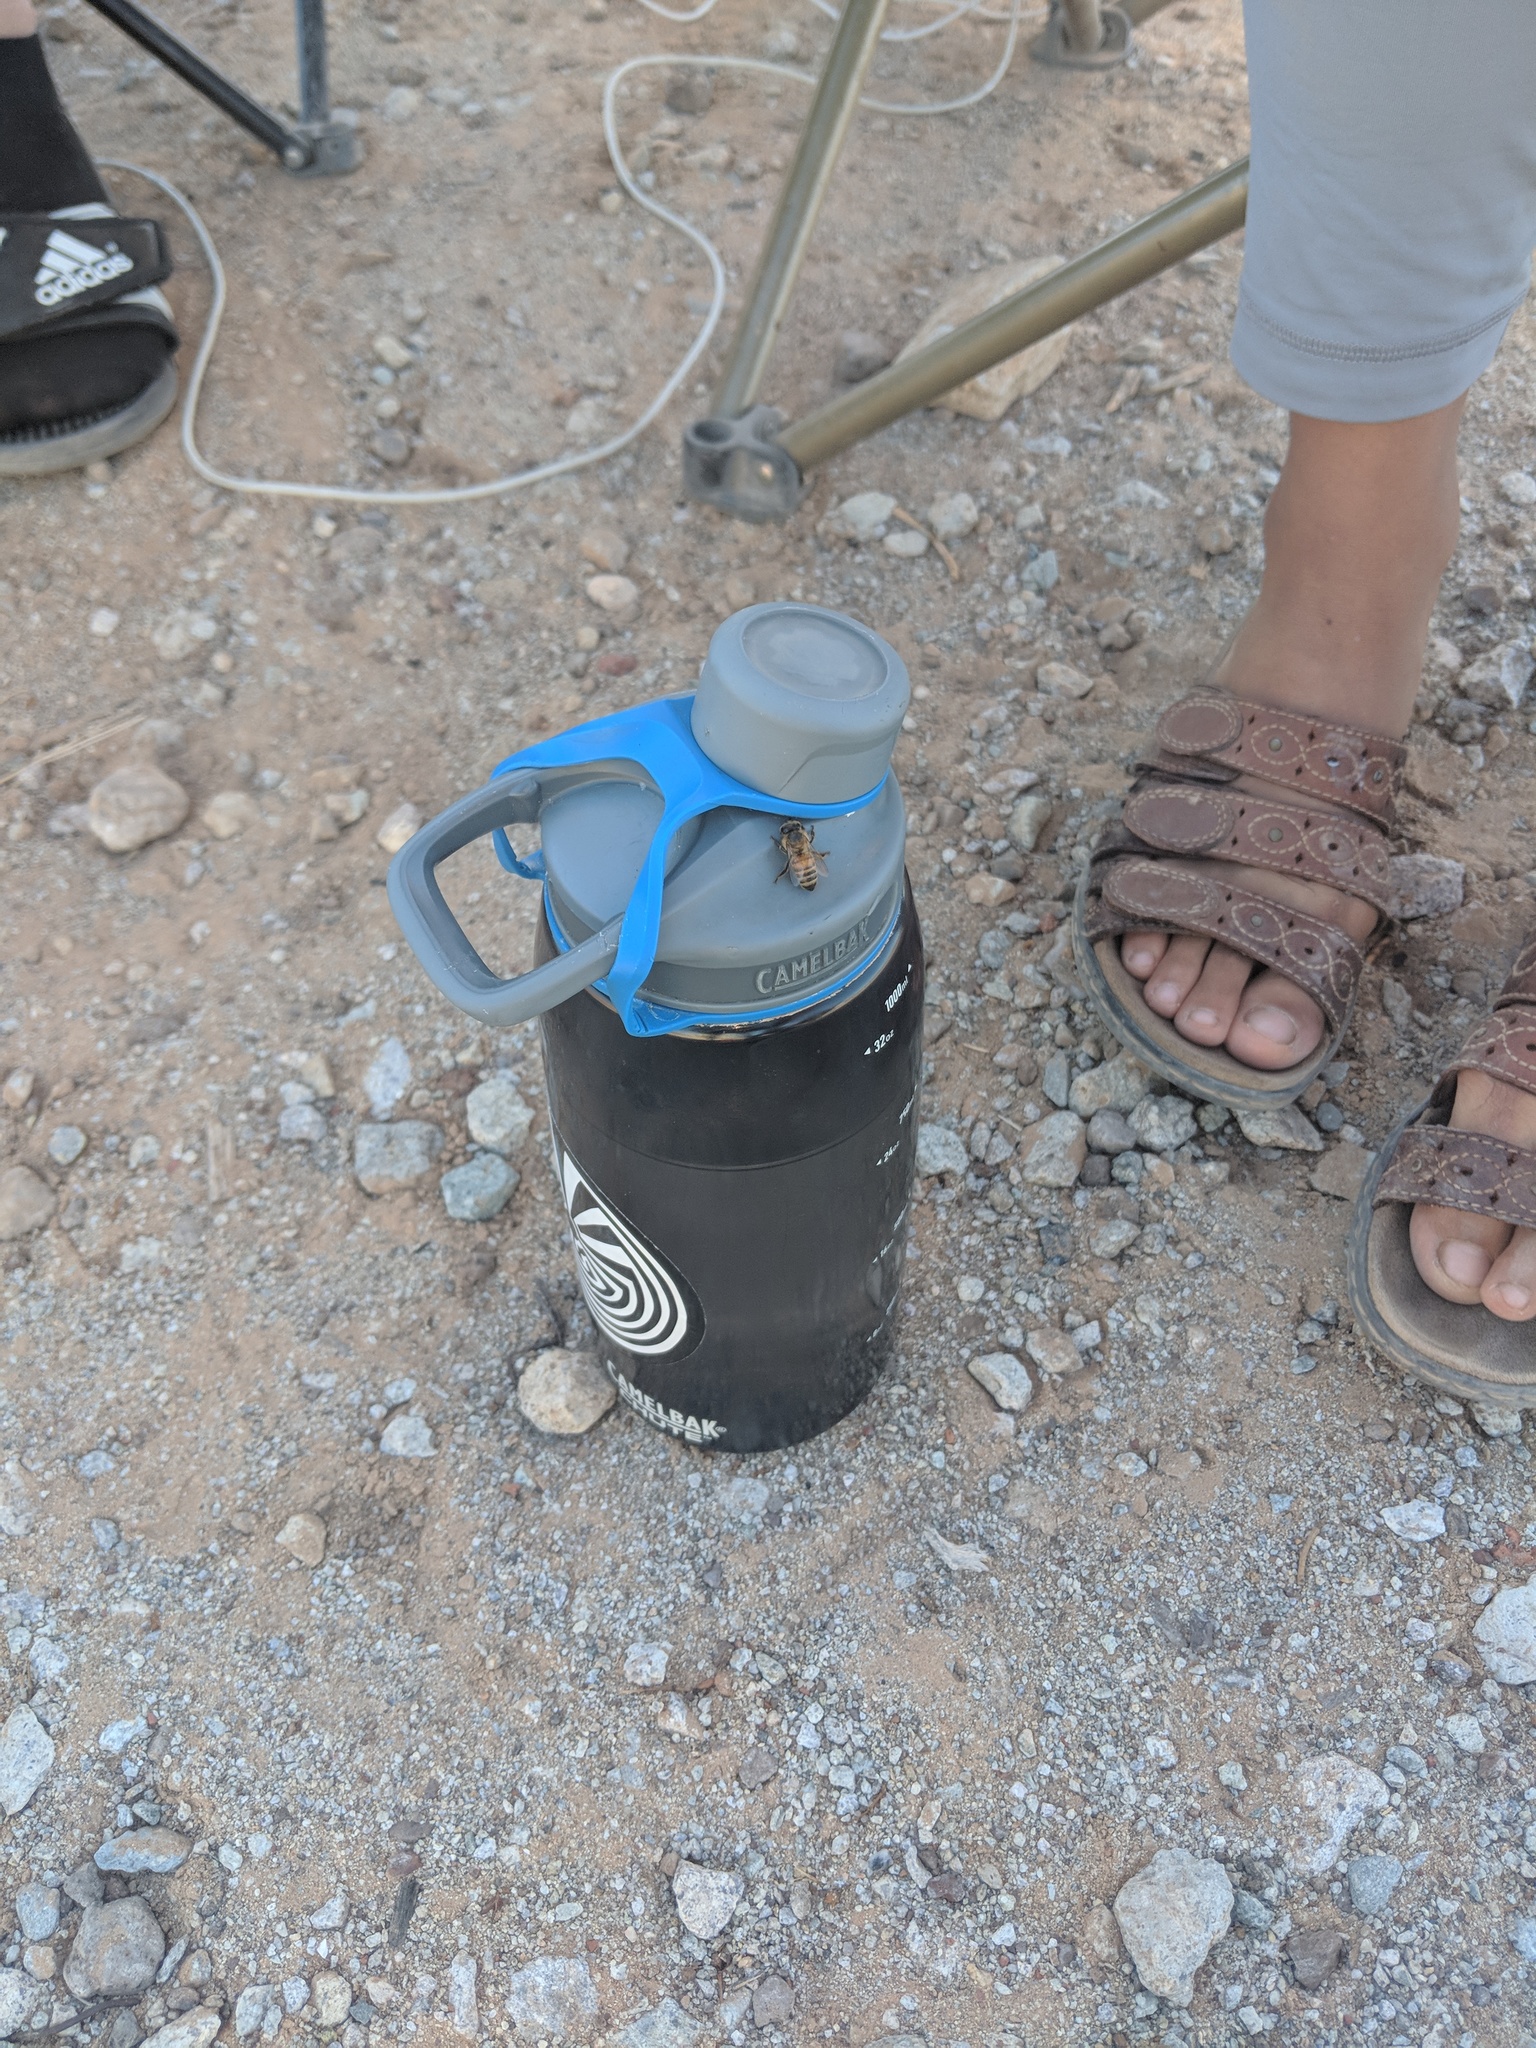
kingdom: Animalia
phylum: Arthropoda
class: Insecta
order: Hymenoptera
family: Apidae
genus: Apis
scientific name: Apis mellifera
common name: Honey bee
